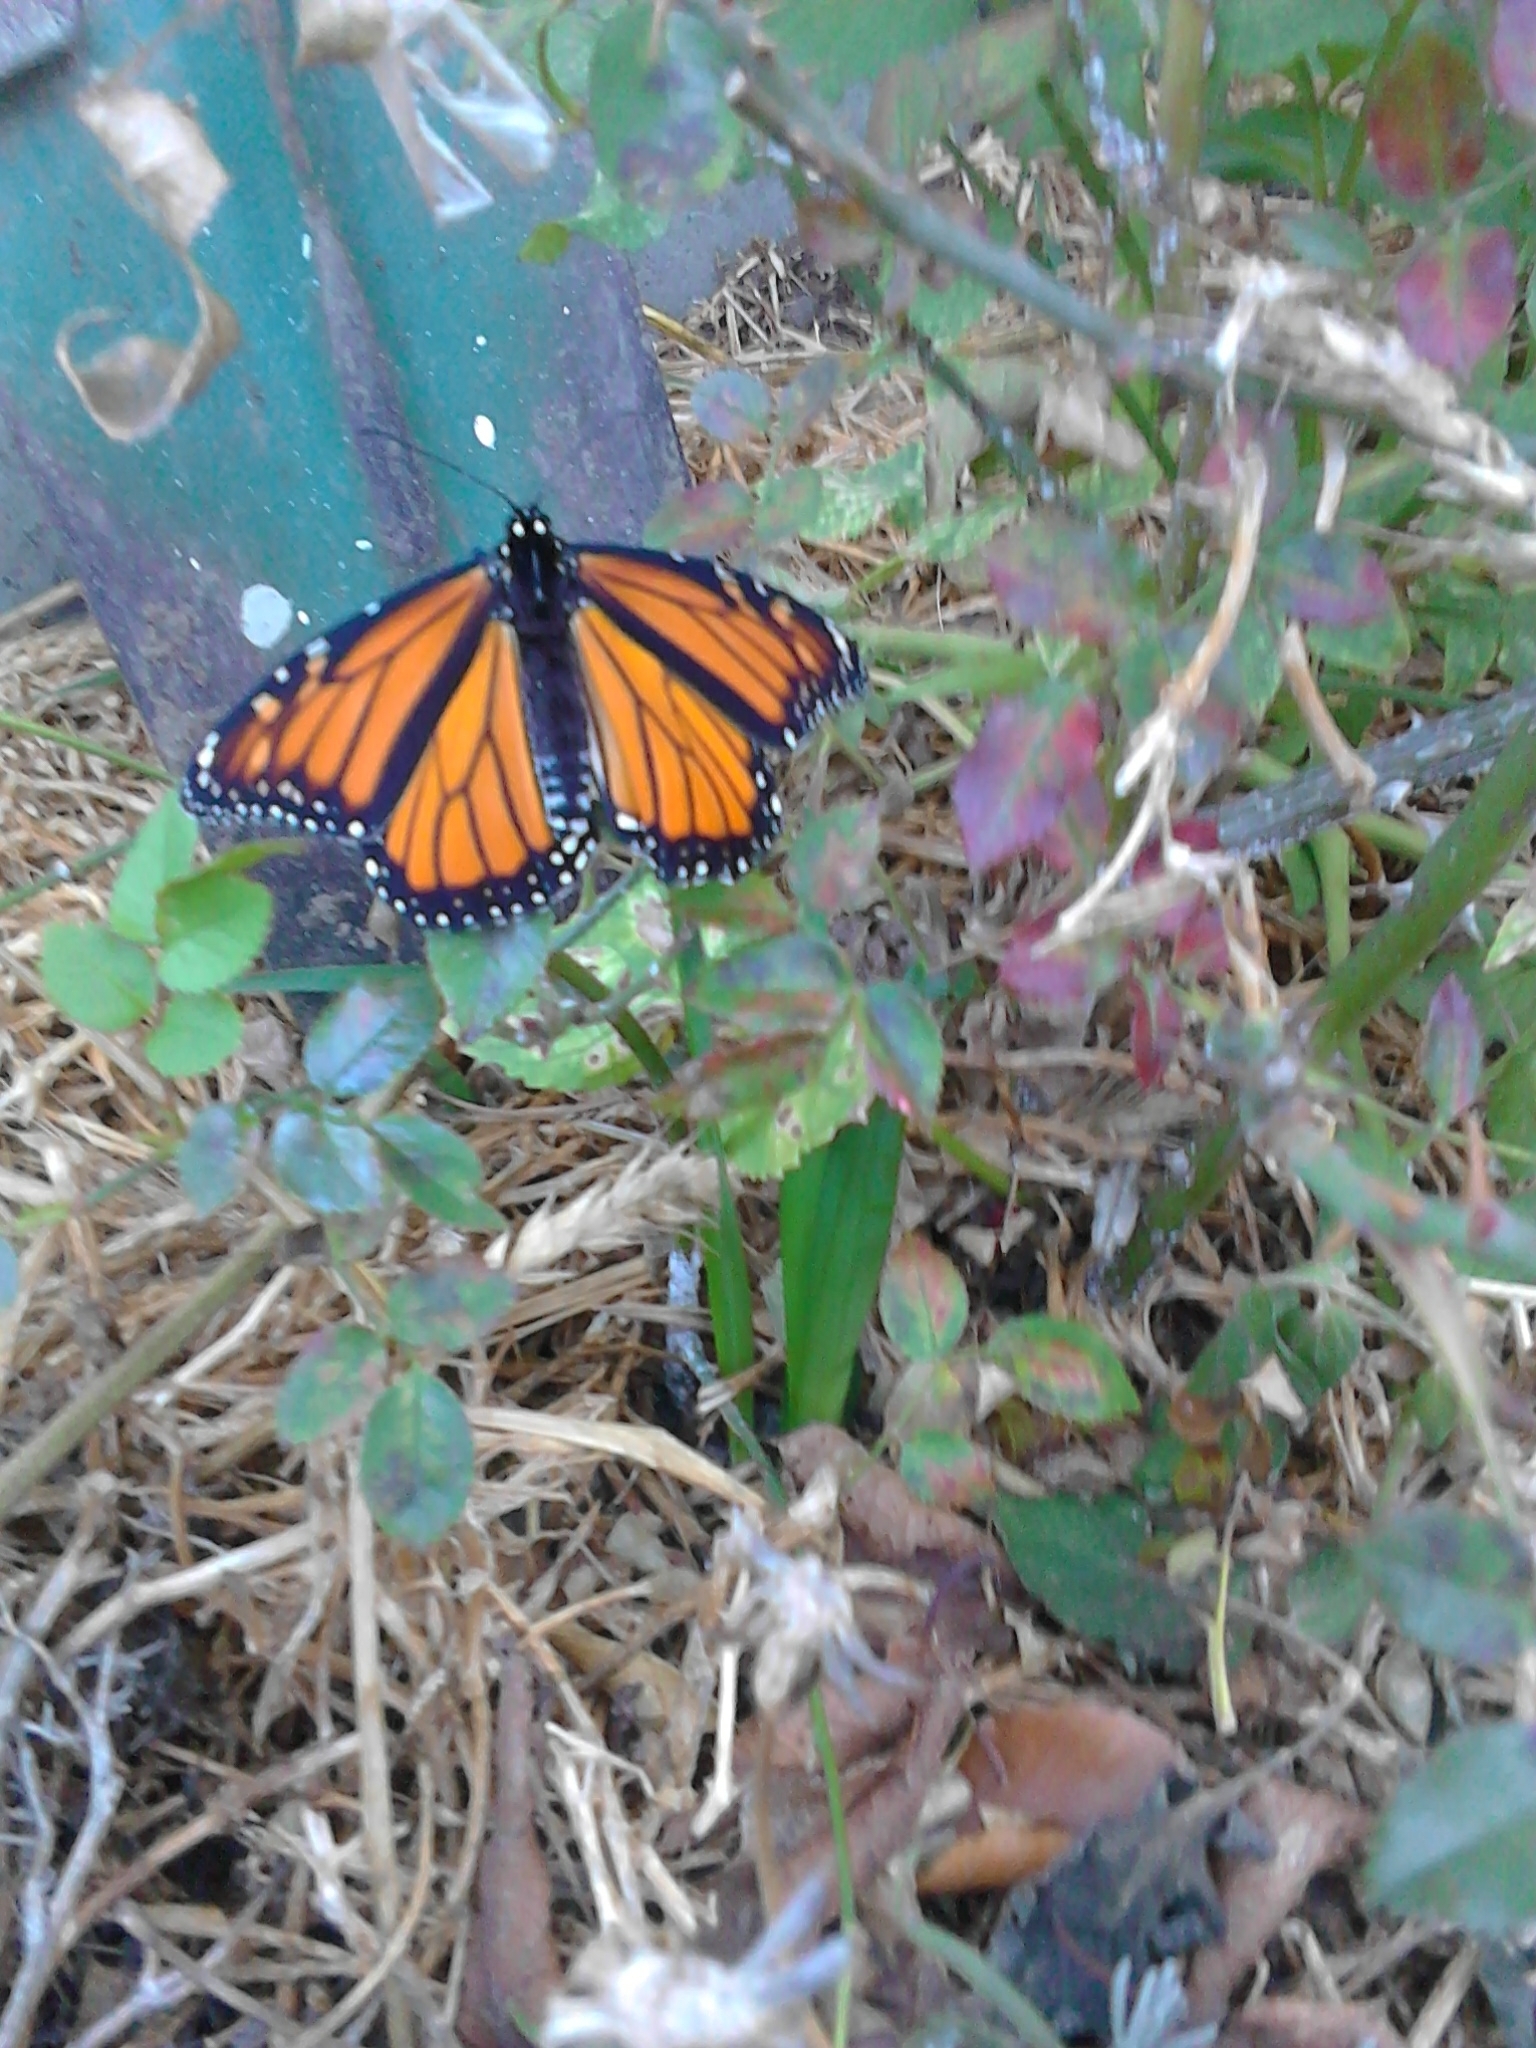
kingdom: Animalia
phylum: Arthropoda
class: Insecta
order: Lepidoptera
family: Nymphalidae
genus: Danaus
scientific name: Danaus plexippus
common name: Monarch
